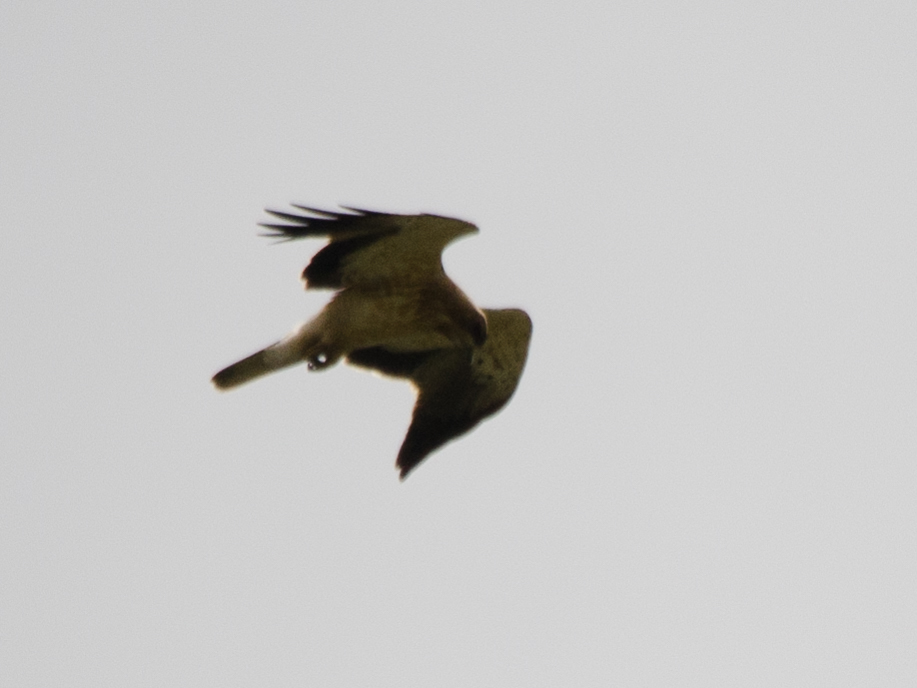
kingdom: Animalia
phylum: Chordata
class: Aves
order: Accipitriformes
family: Accipitridae
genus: Hieraaetus
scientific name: Hieraaetus pennatus
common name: Booted eagle
